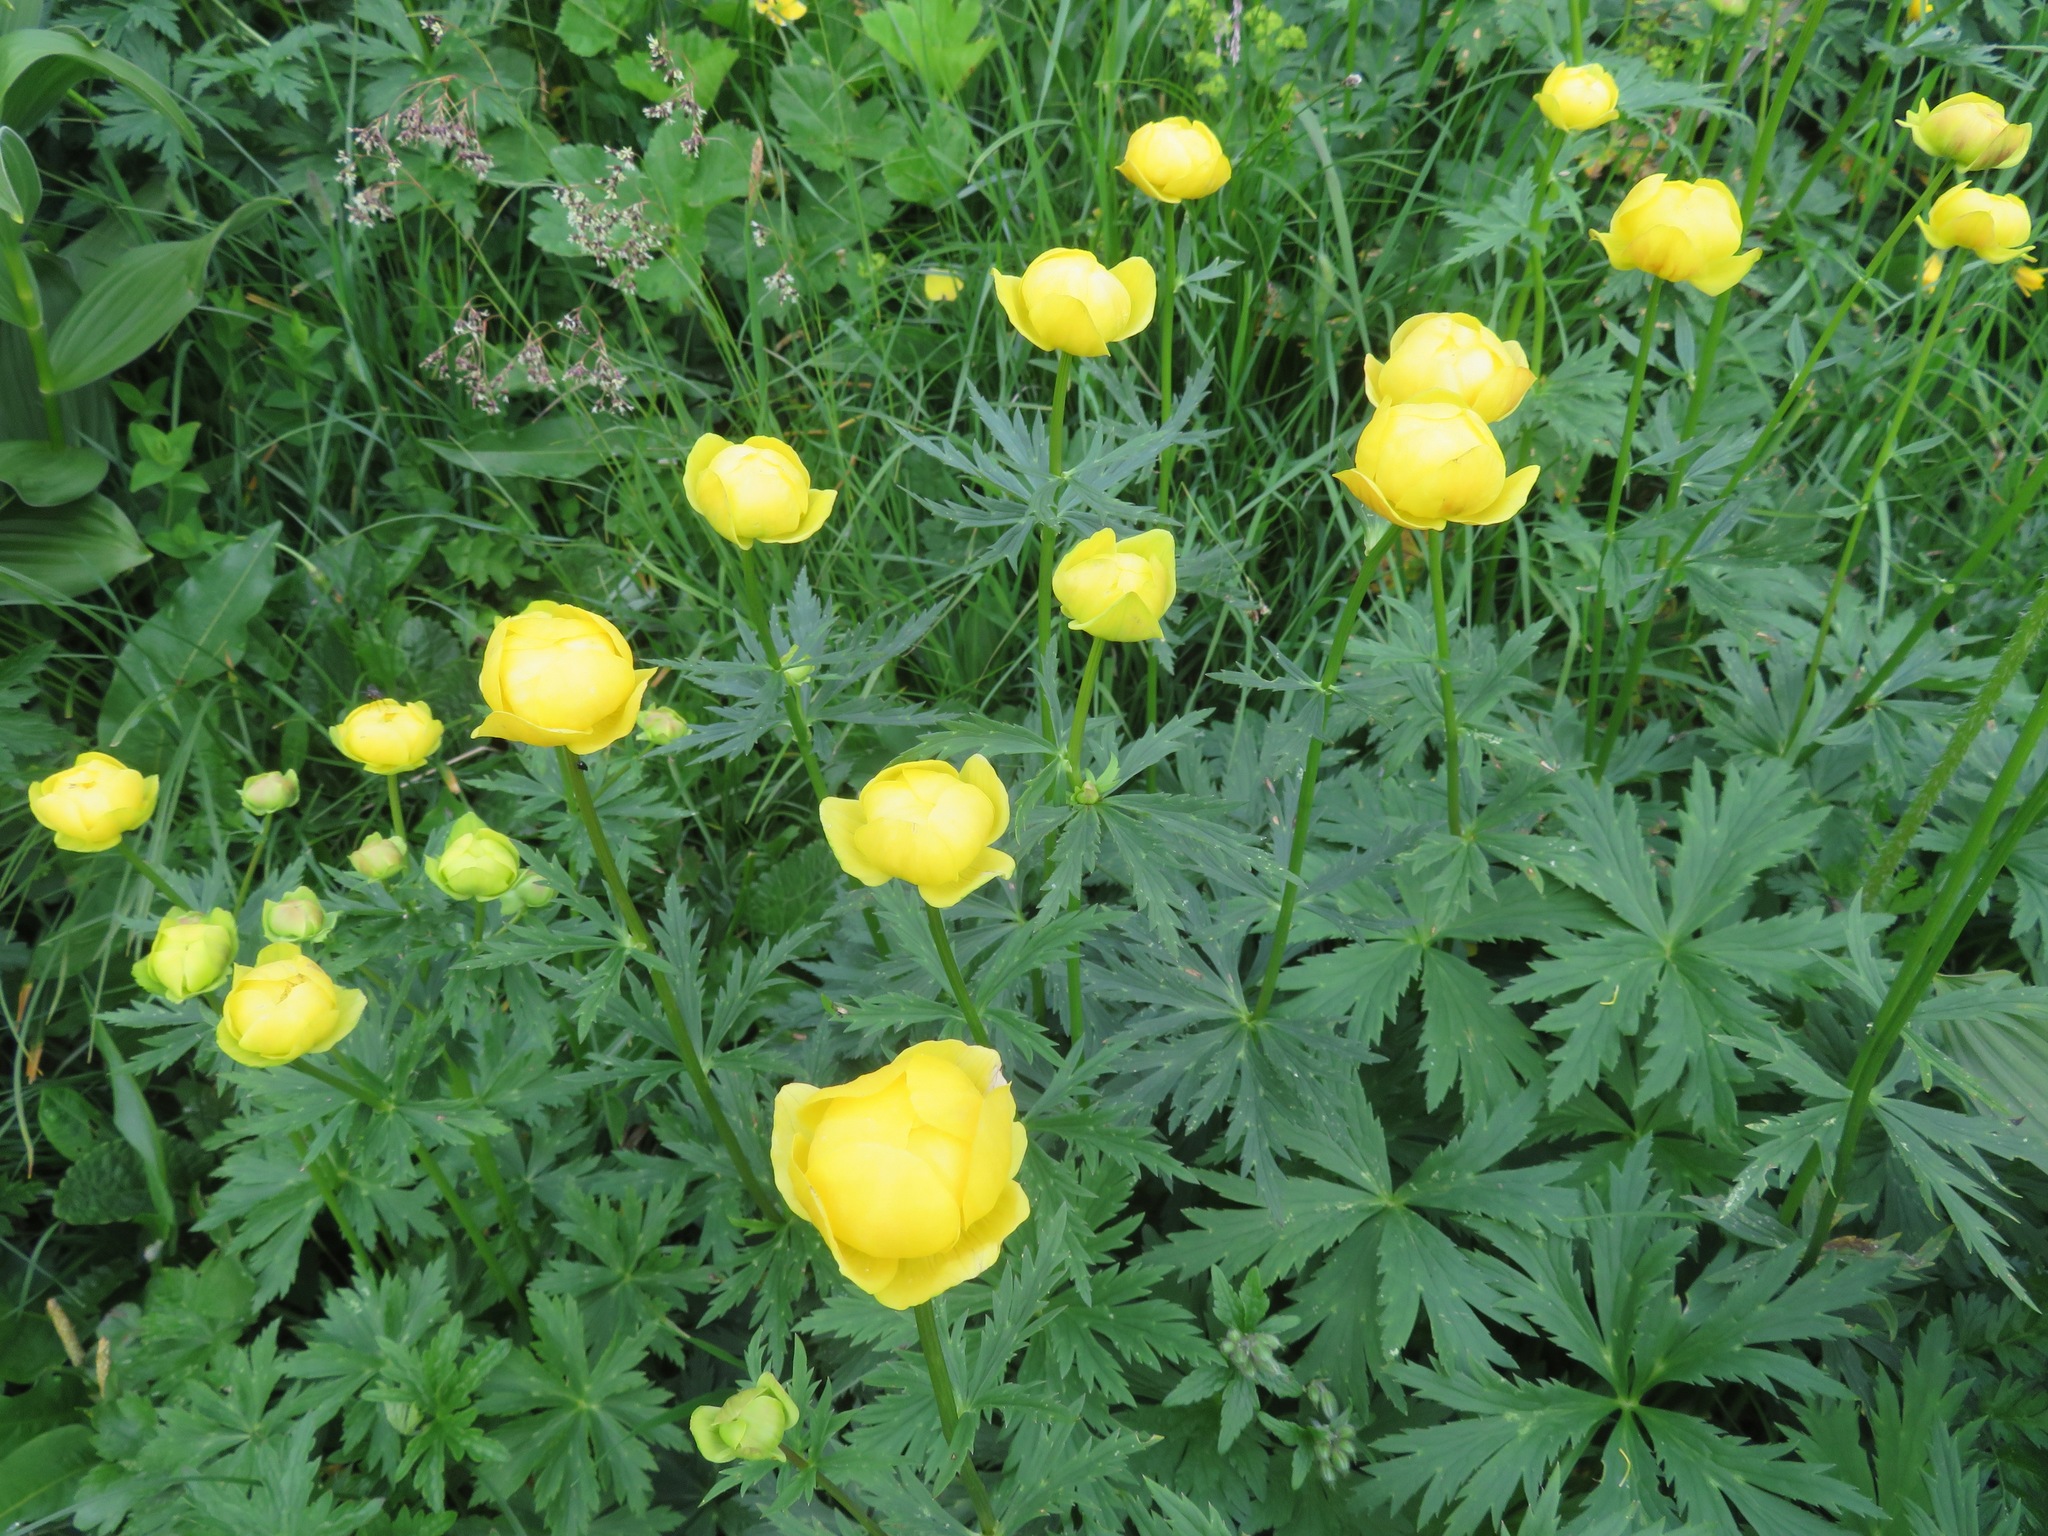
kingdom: Plantae
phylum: Tracheophyta
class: Magnoliopsida
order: Ranunculales
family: Ranunculaceae
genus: Trollius
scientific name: Trollius europaeus
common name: European globeflower
